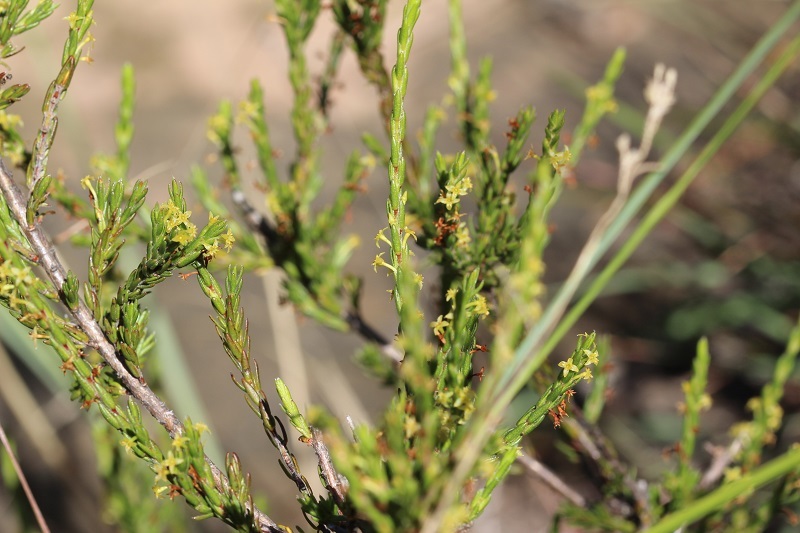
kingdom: Plantae
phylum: Tracheophyta
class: Magnoliopsida
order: Malvales
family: Thymelaeaceae
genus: Struthiola
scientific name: Struthiola parviflora
